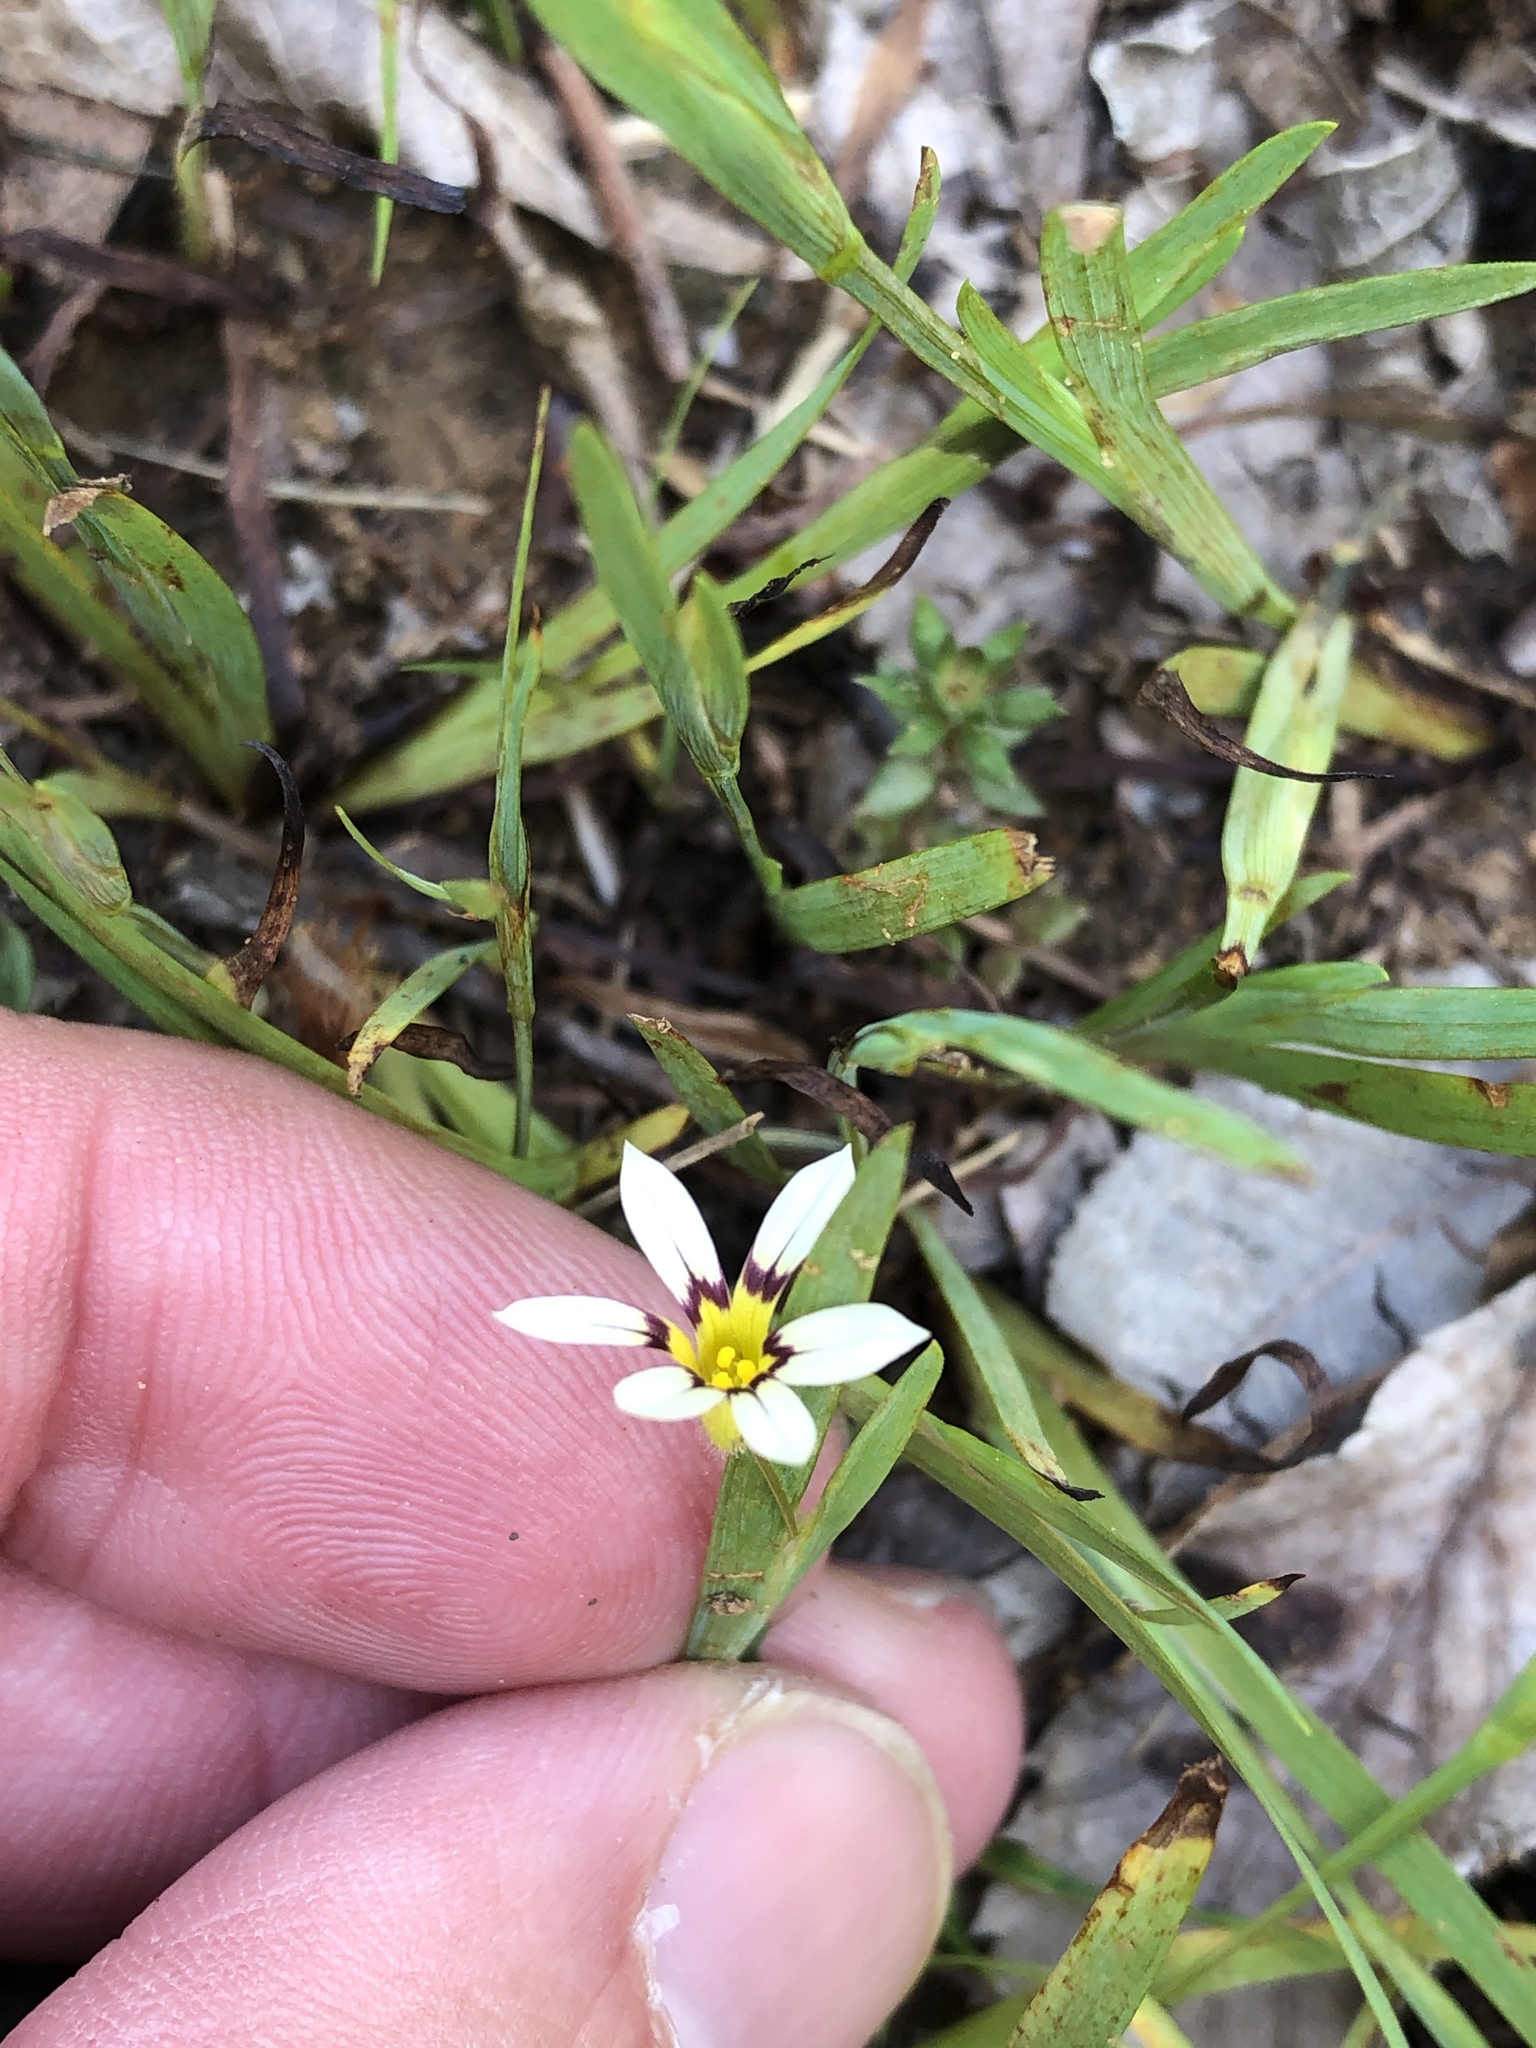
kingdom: Plantae
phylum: Tracheophyta
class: Liliopsida
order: Asparagales
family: Iridaceae
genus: Sisyrinchium
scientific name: Sisyrinchium micranthum
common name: Bermuda pigroot
